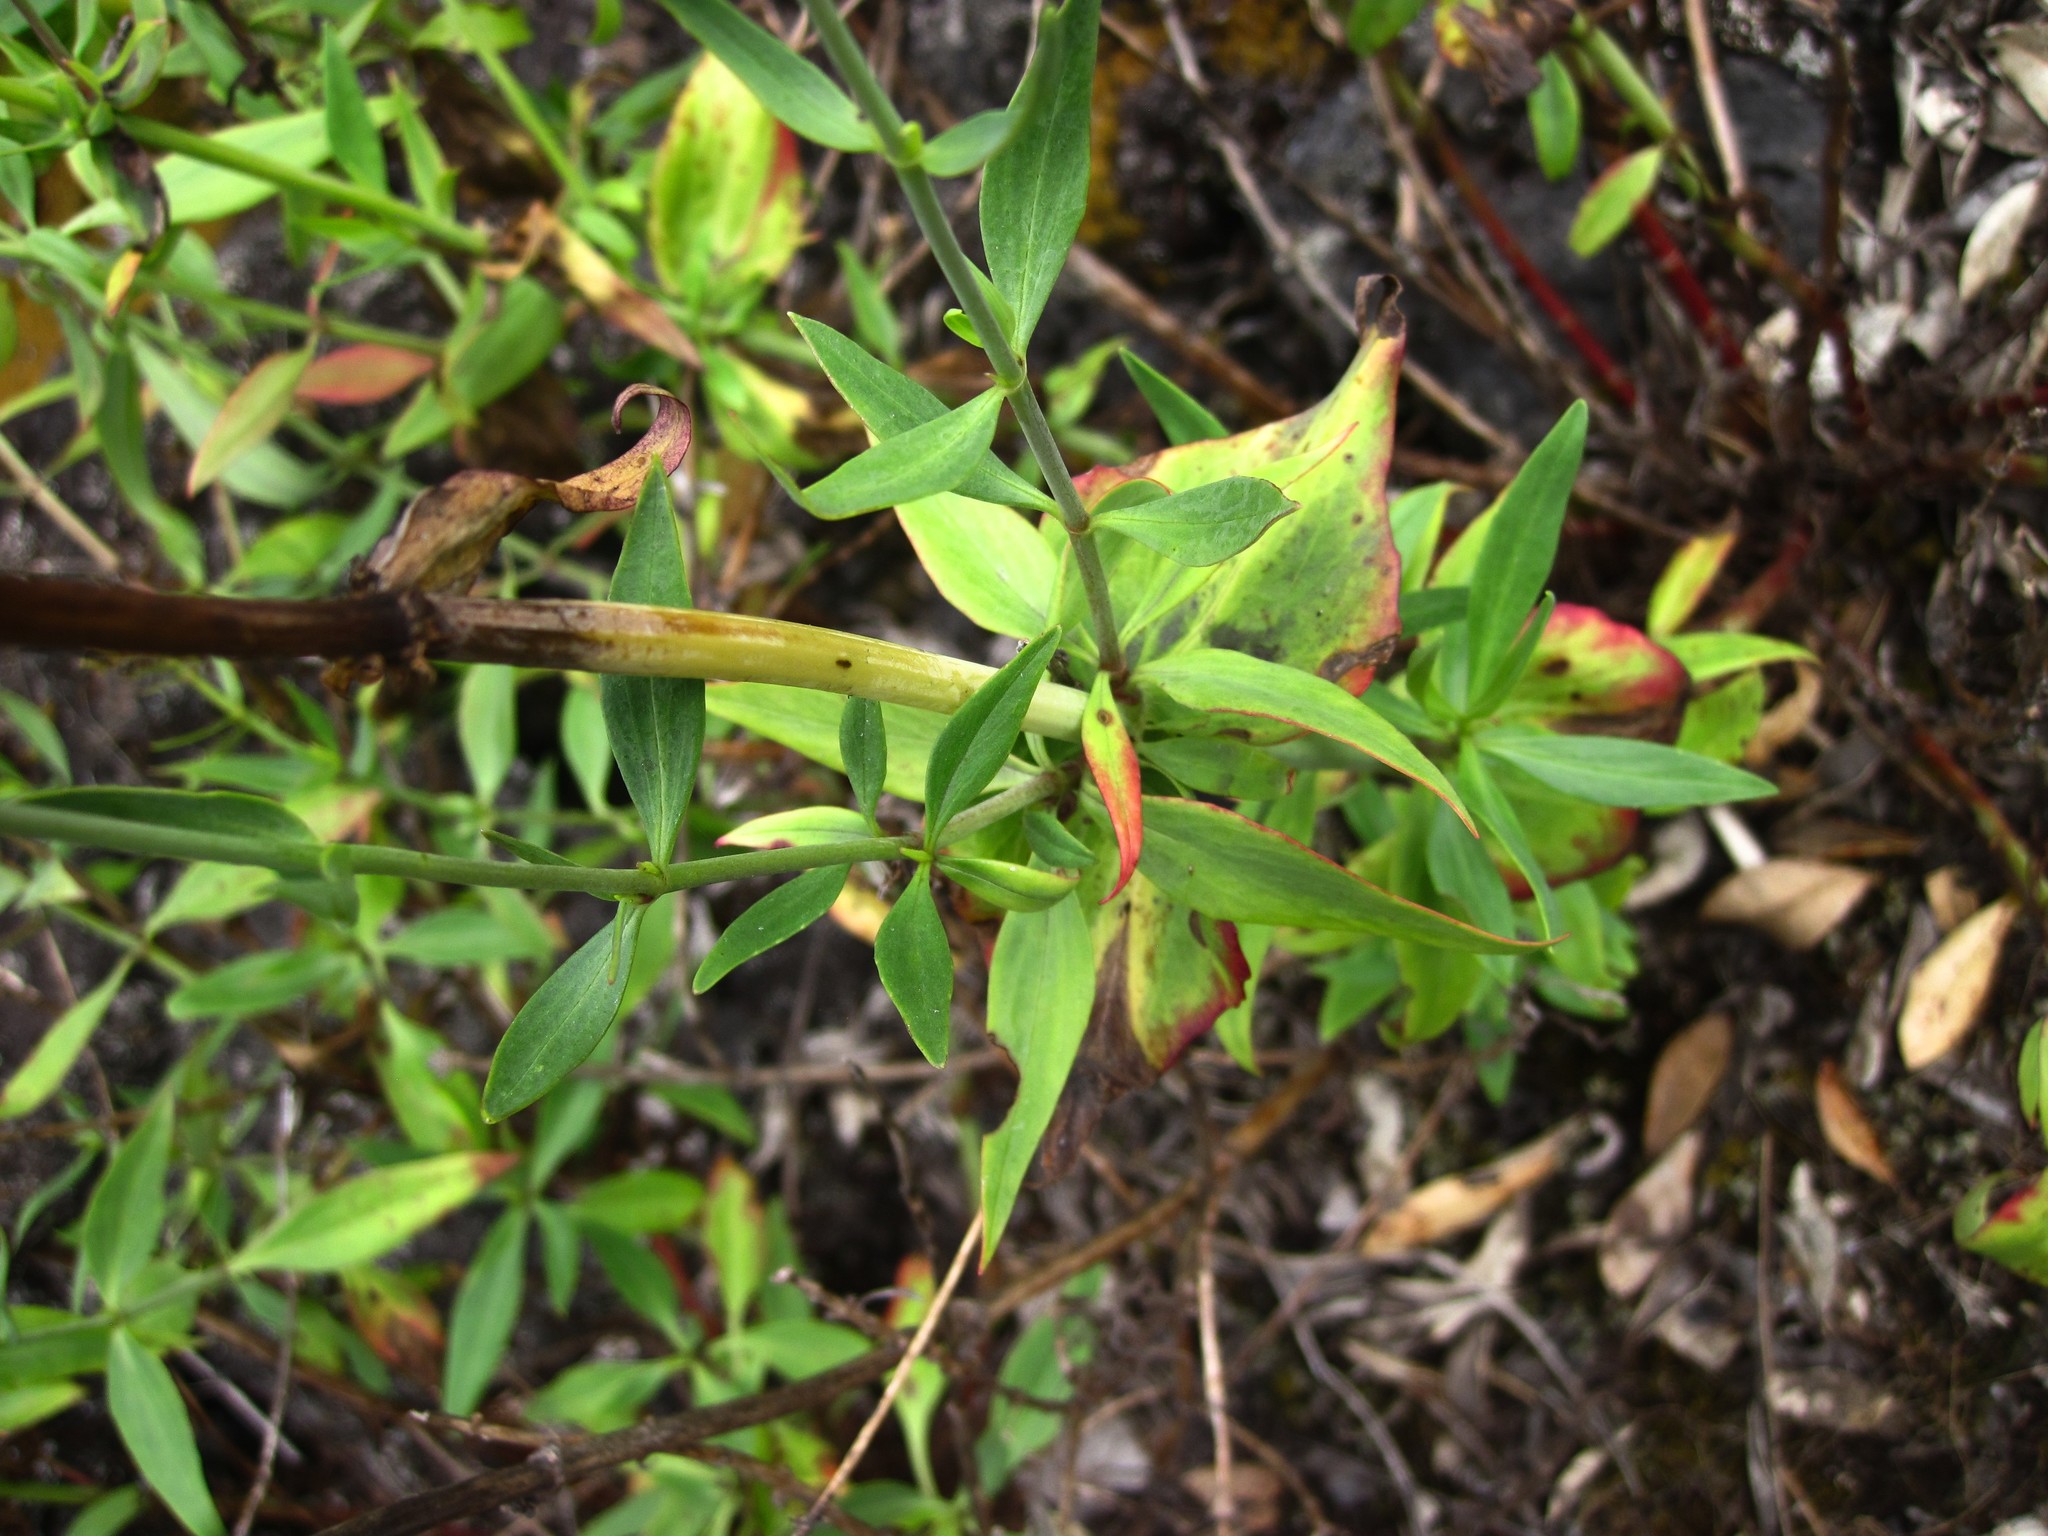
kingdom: Plantae
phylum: Tracheophyta
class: Magnoliopsida
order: Dipsacales
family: Caprifoliaceae
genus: Centranthus
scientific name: Centranthus ruber
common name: Red valerian
